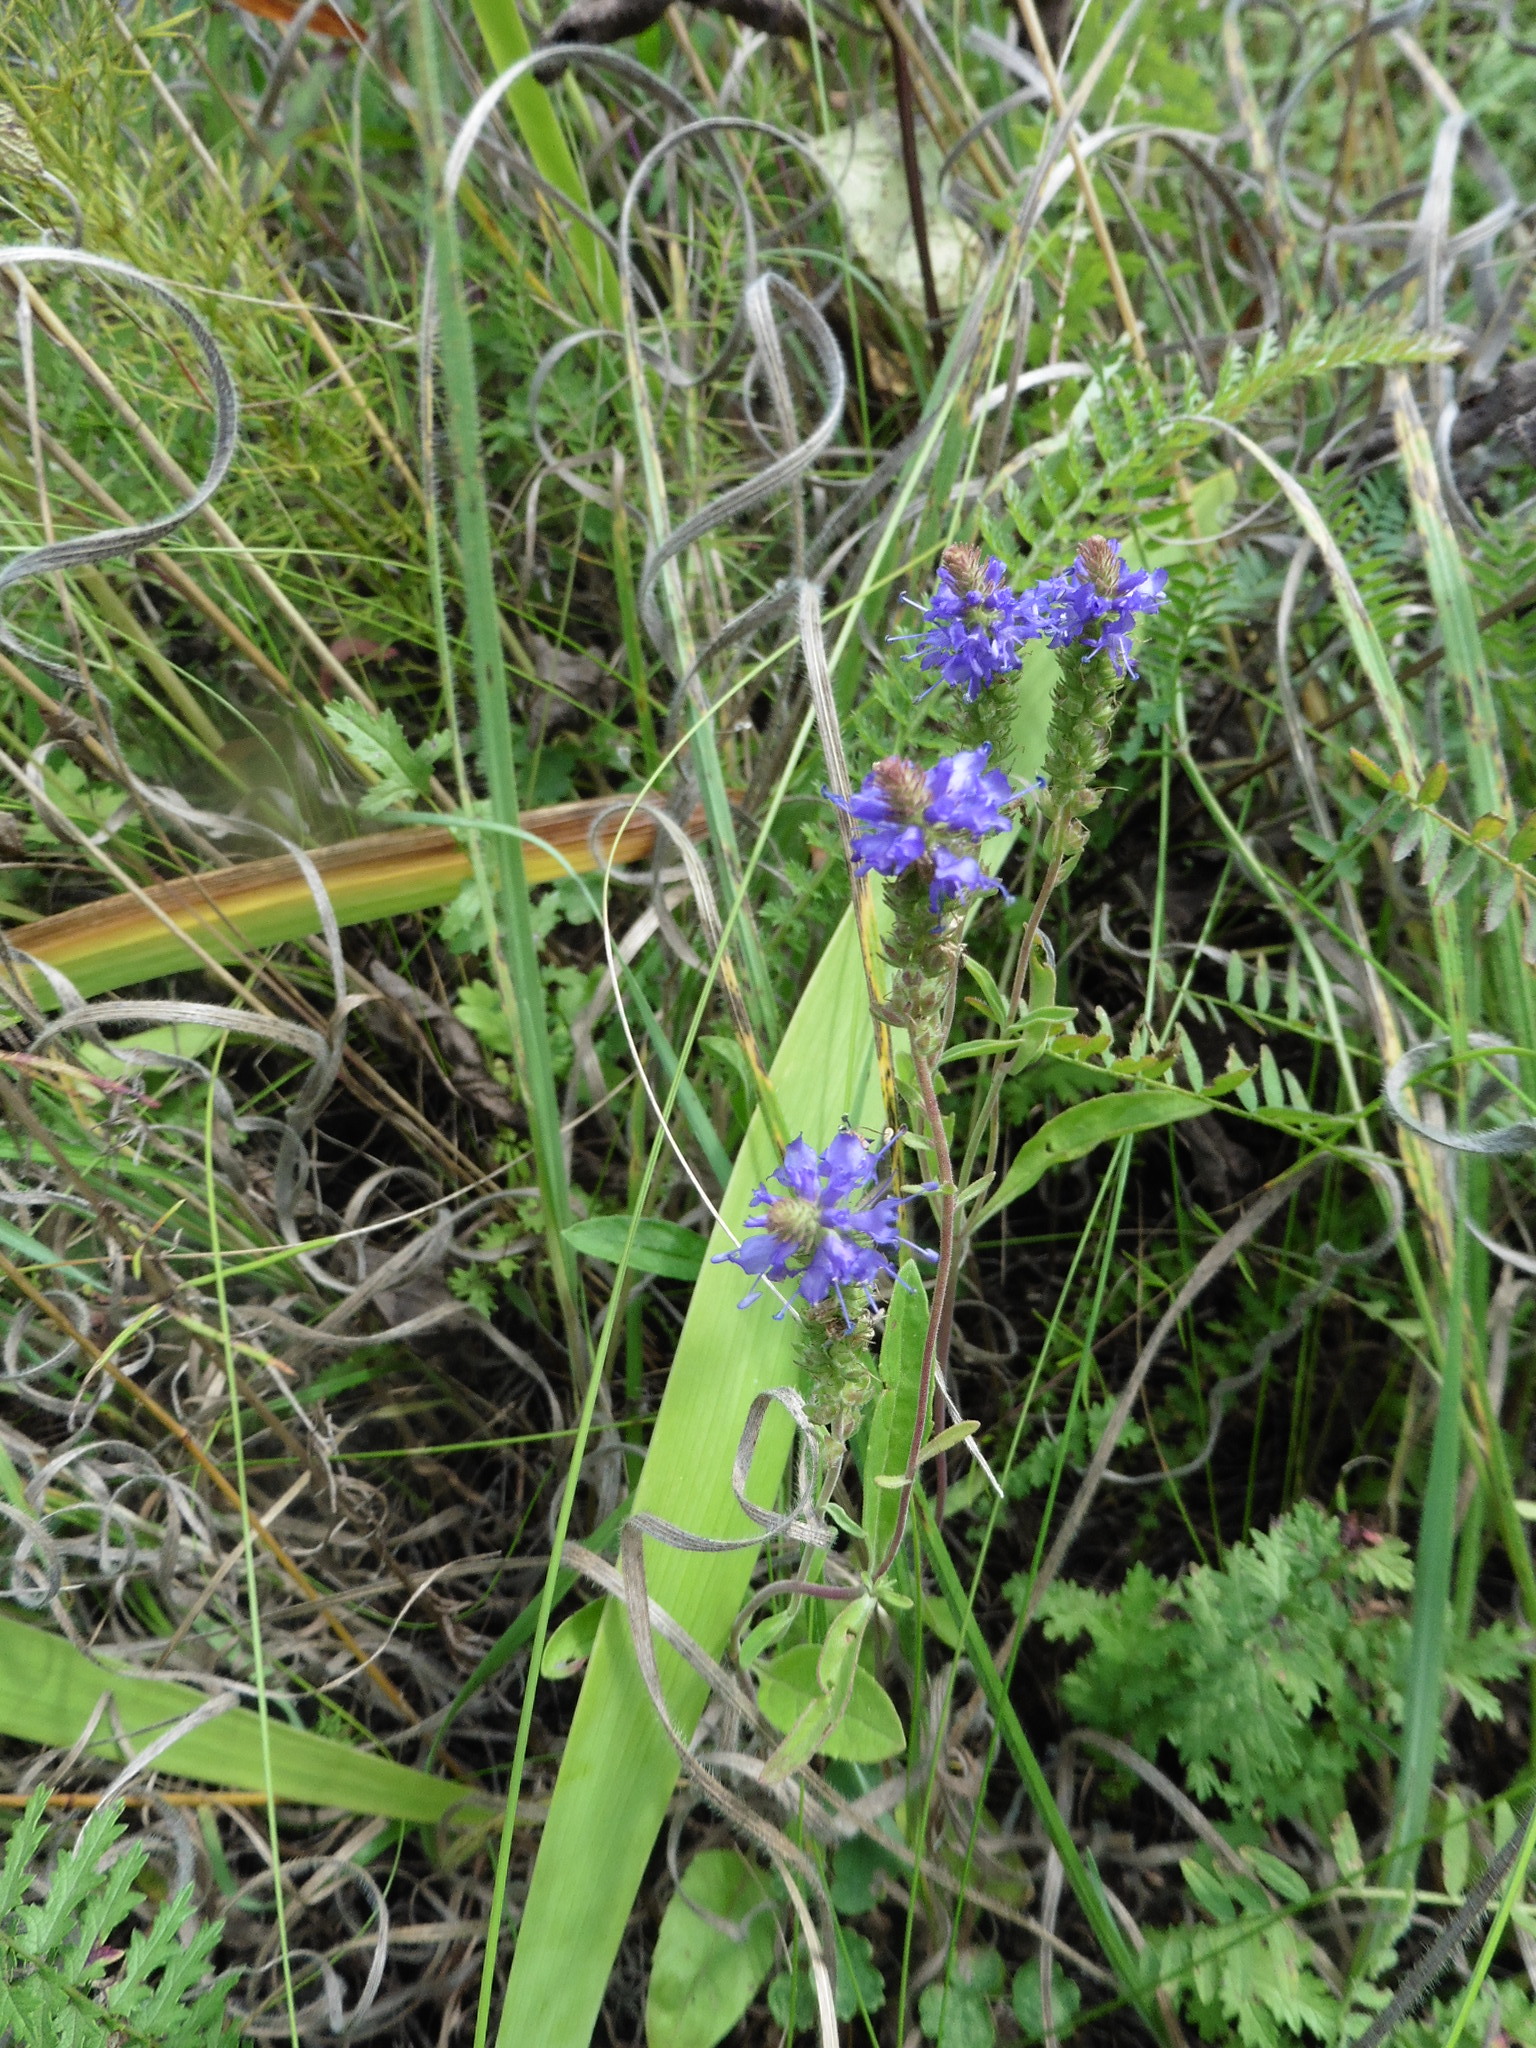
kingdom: Plantae
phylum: Tracheophyta
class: Magnoliopsida
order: Lamiales
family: Plantaginaceae
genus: Veronica
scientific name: Veronica spicata
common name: Spiked speedwell
